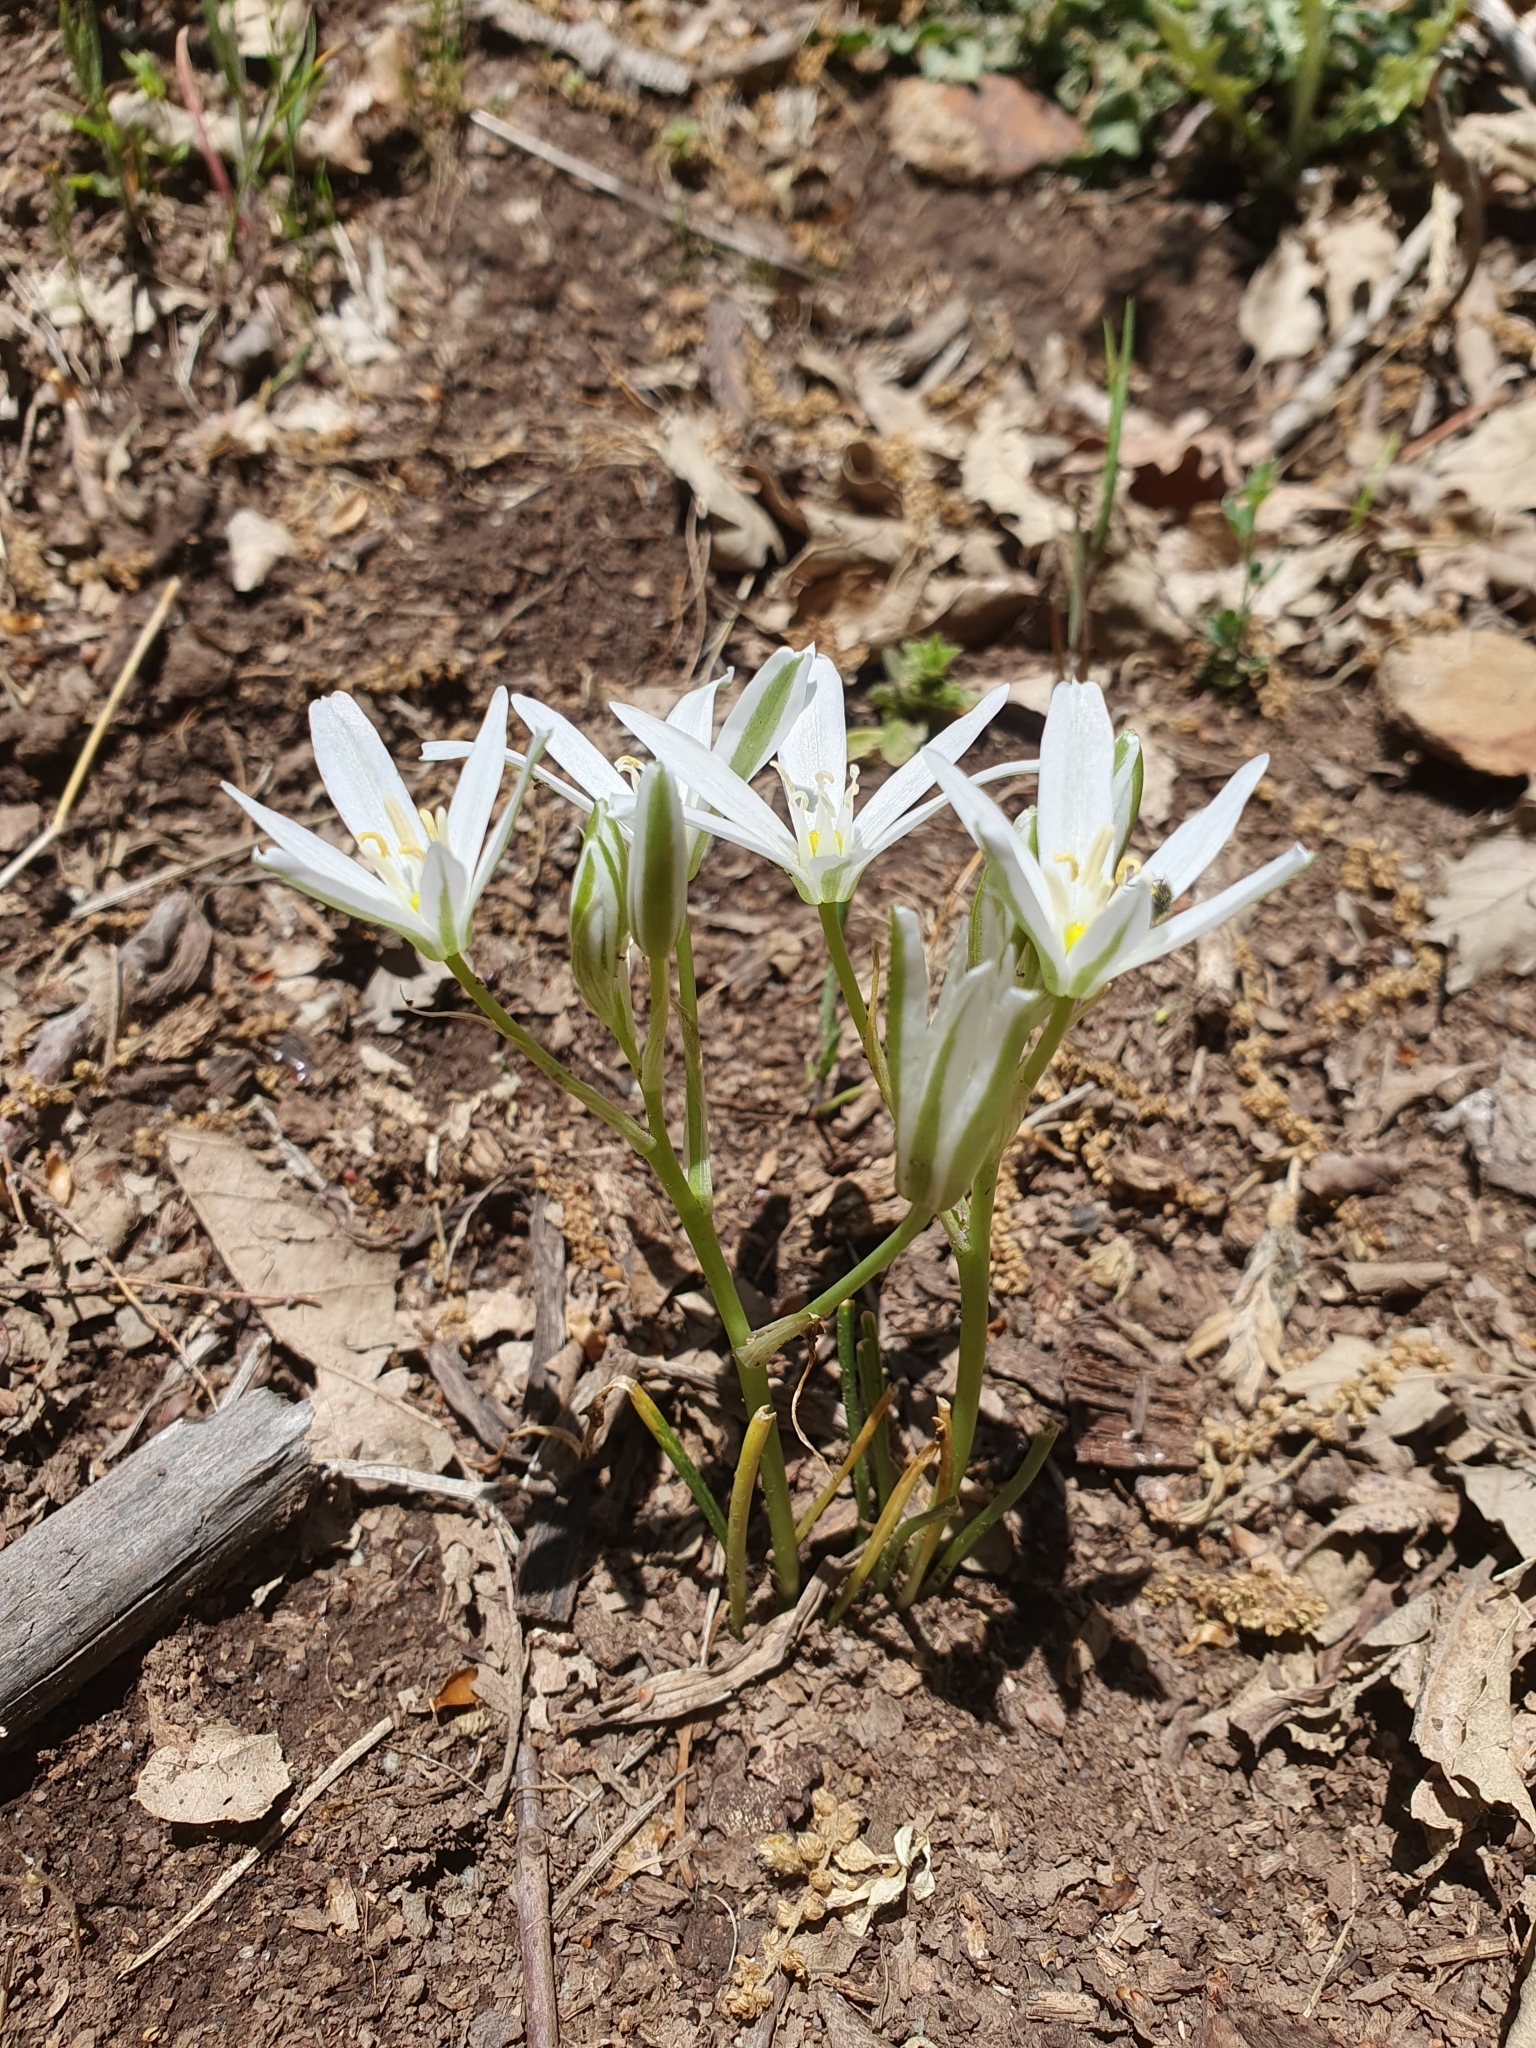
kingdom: Plantae
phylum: Tracheophyta
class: Liliopsida
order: Asparagales
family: Asparagaceae
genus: Ornithogalum
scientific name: Ornithogalum baeticum
